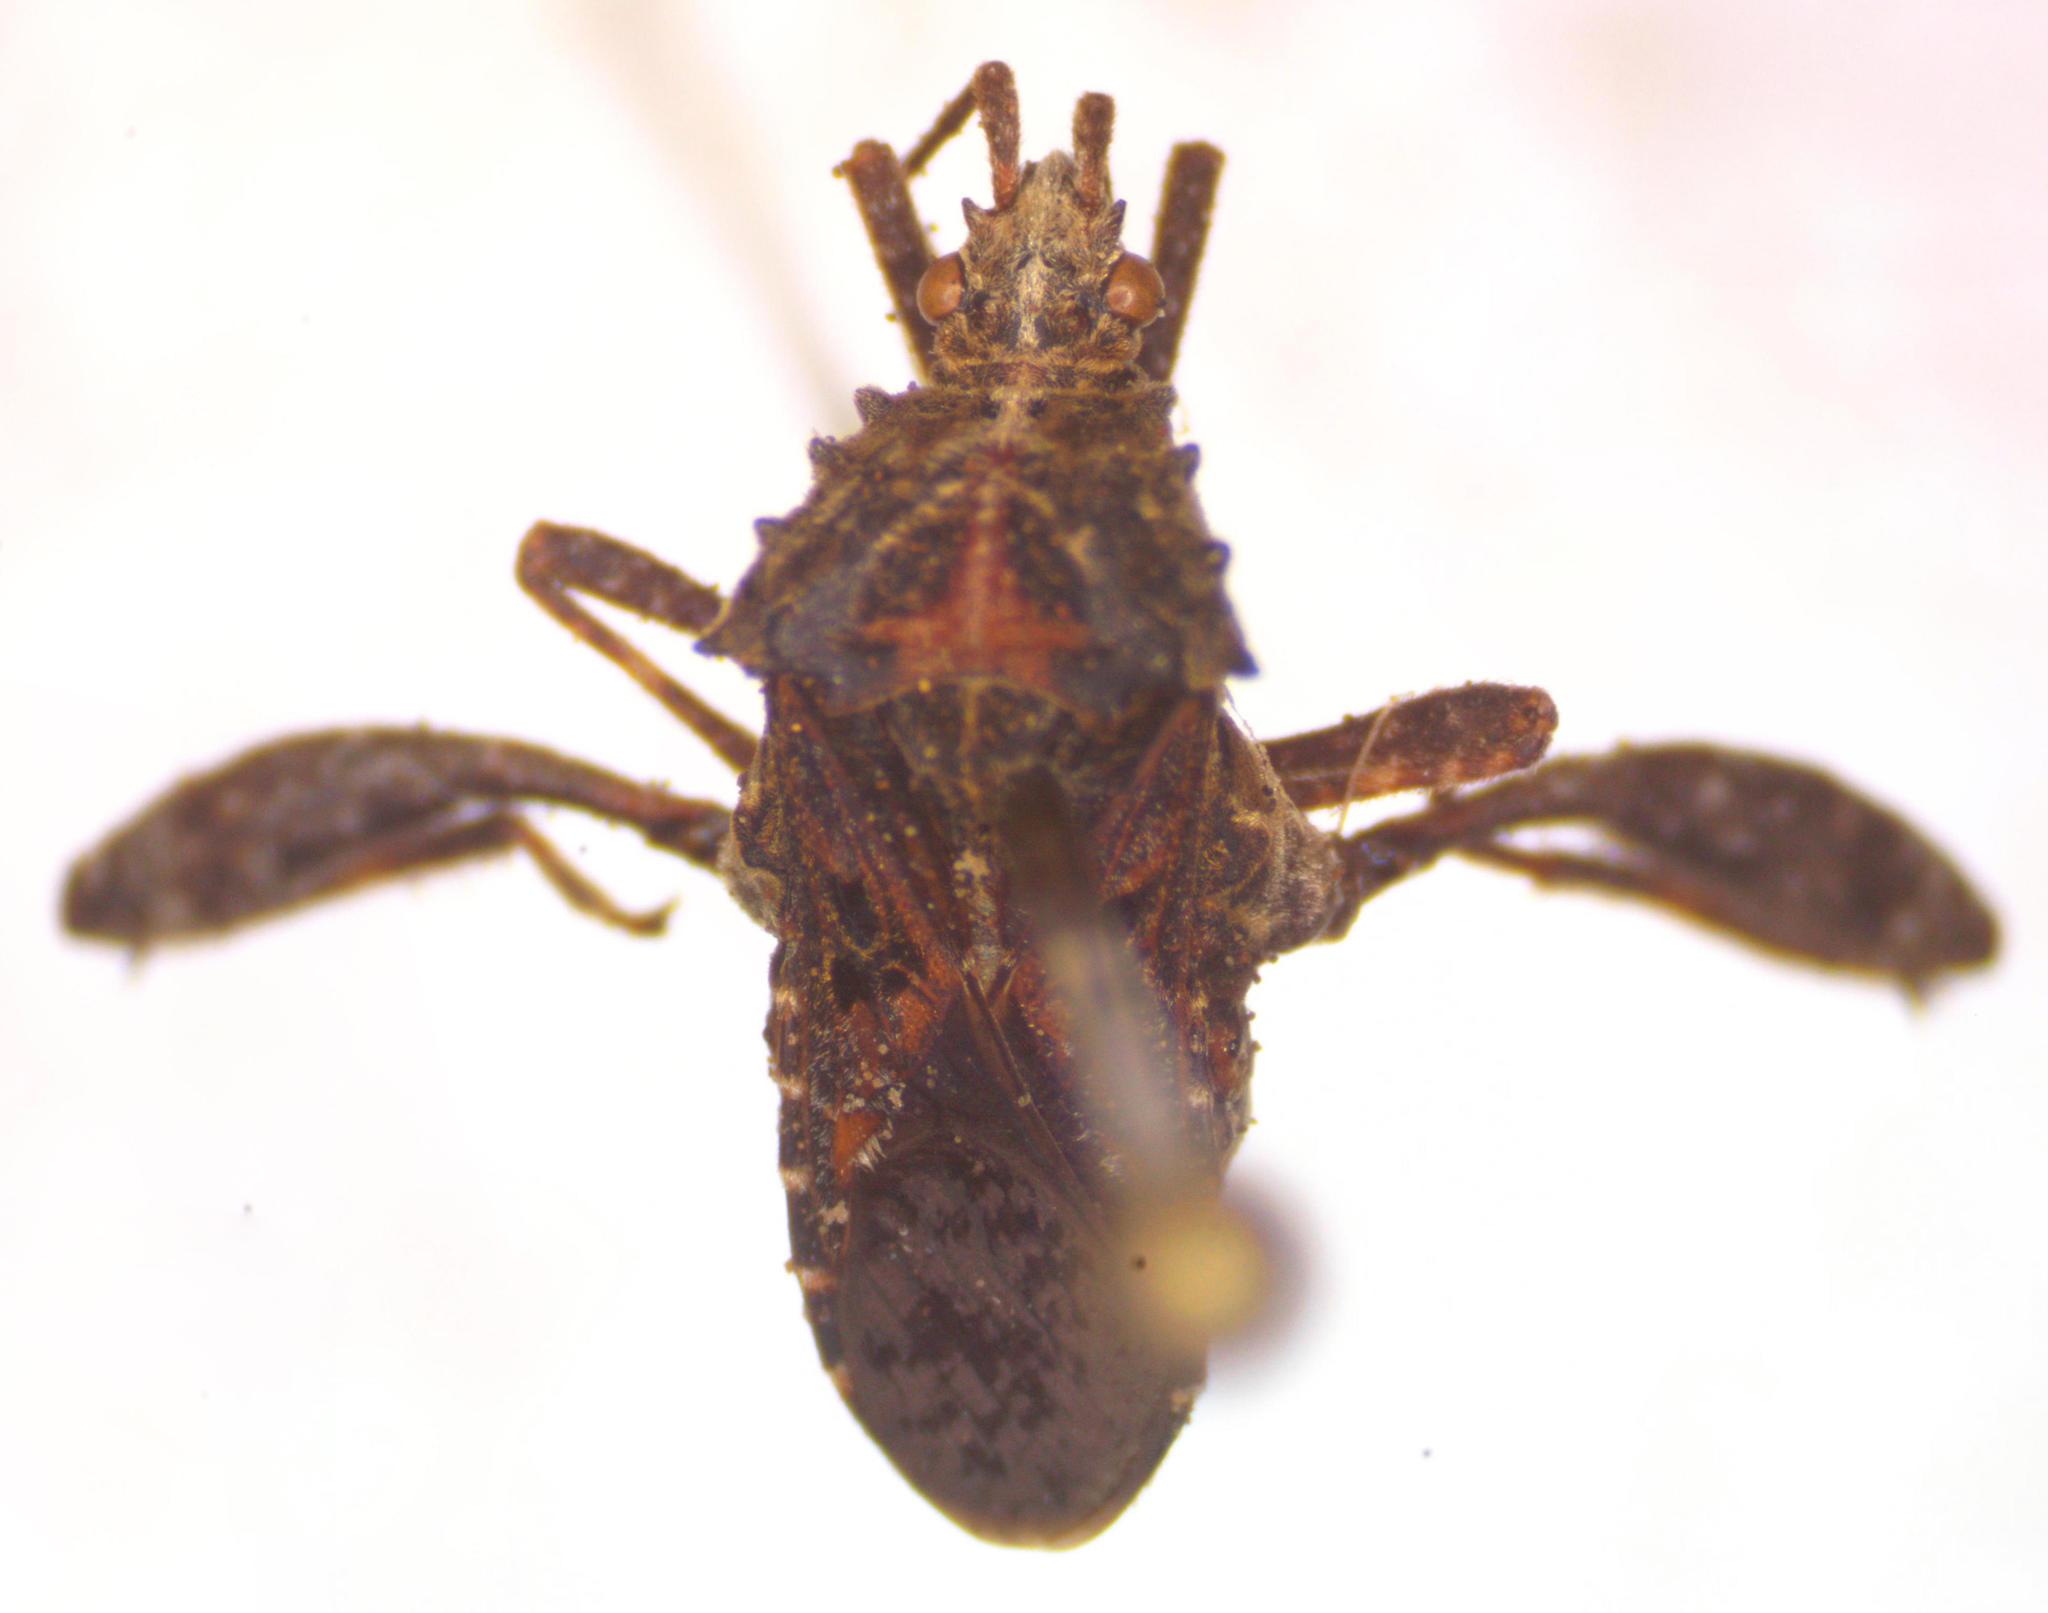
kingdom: Animalia
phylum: Arthropoda
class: Insecta
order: Hemiptera
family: Coreidae
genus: Merocoris
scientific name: Merocoris distinctus
